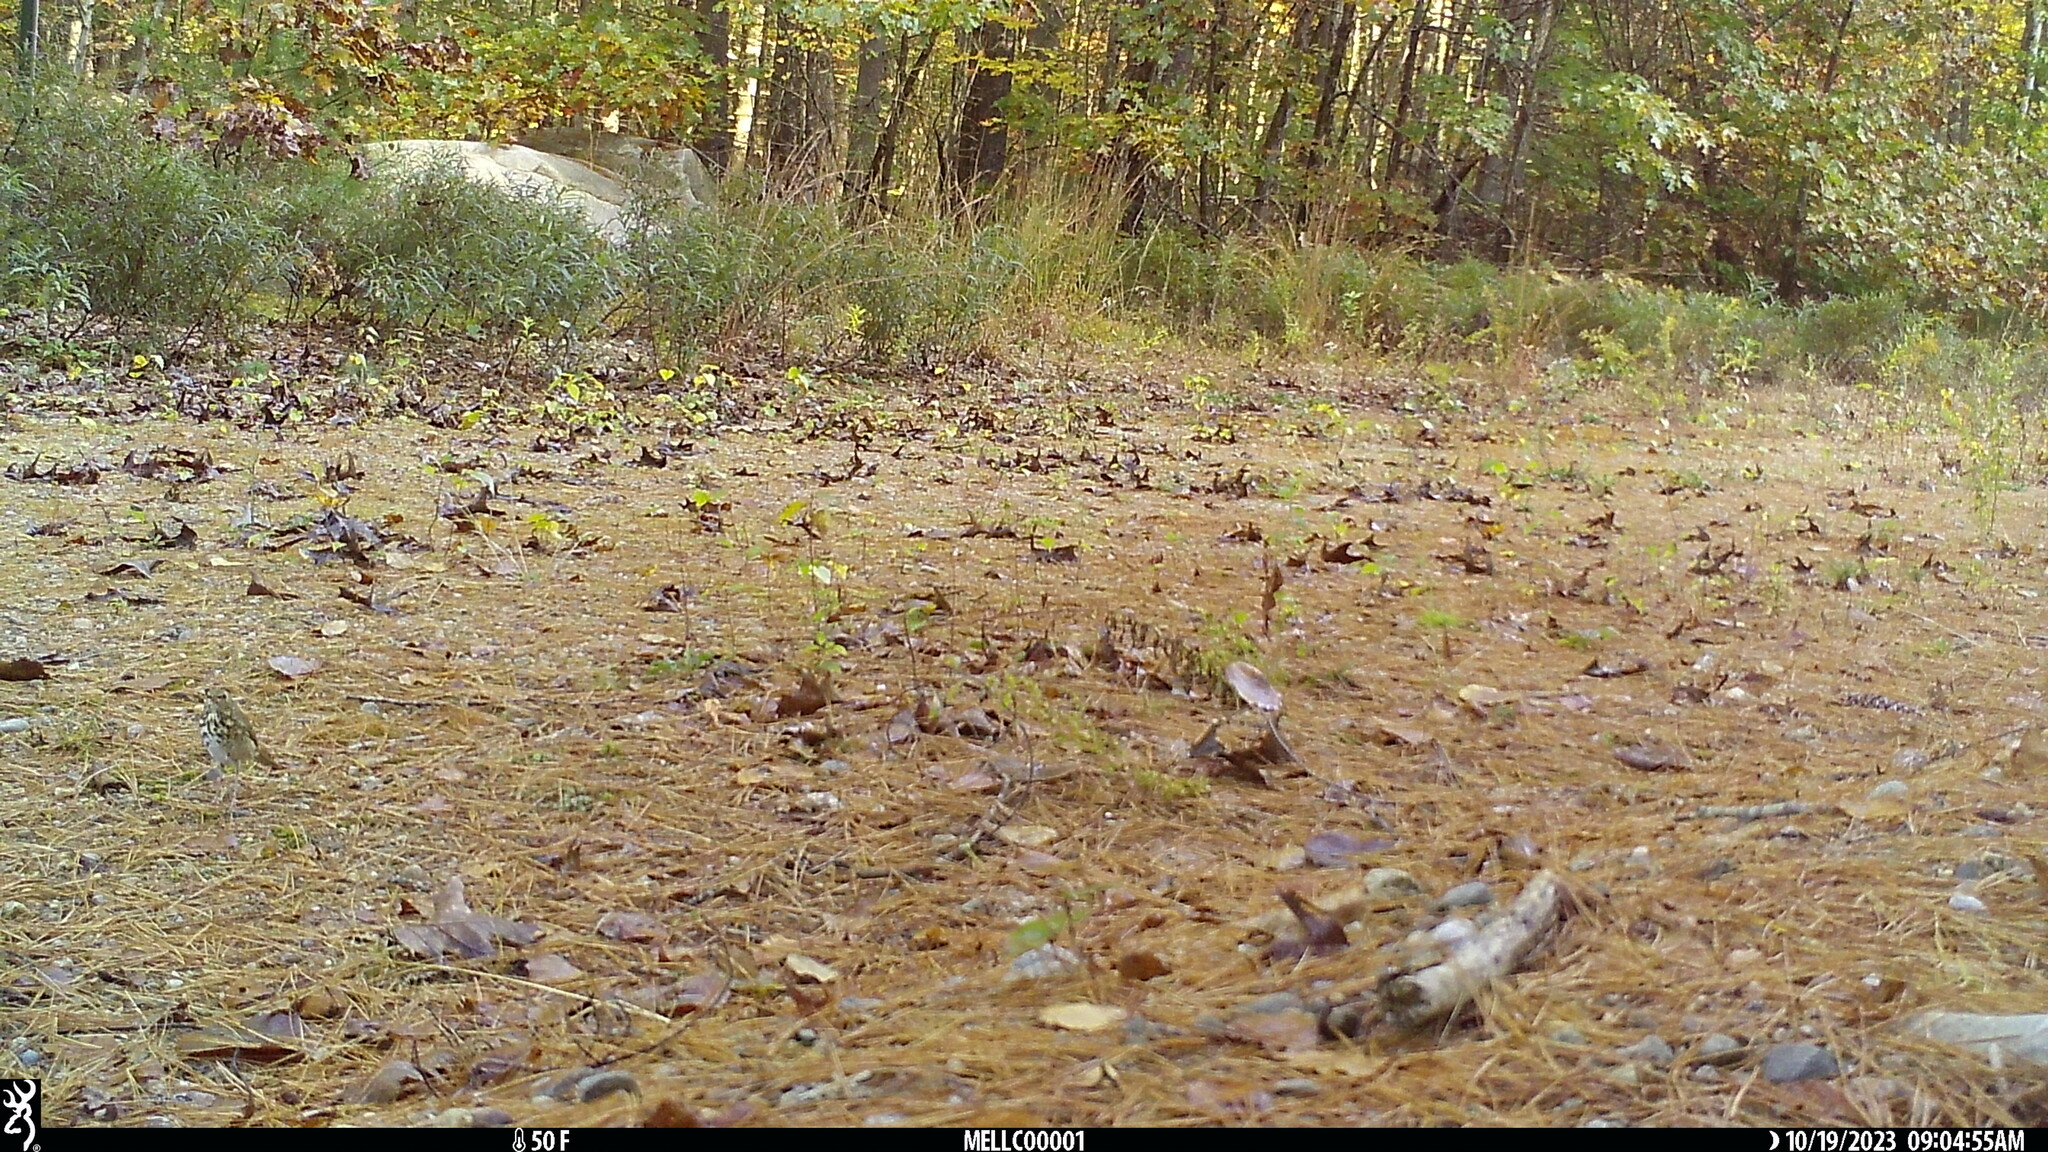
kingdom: Animalia
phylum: Chordata
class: Aves
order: Passeriformes
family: Turdidae
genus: Catharus
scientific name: Catharus guttatus
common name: Hermit thrush
